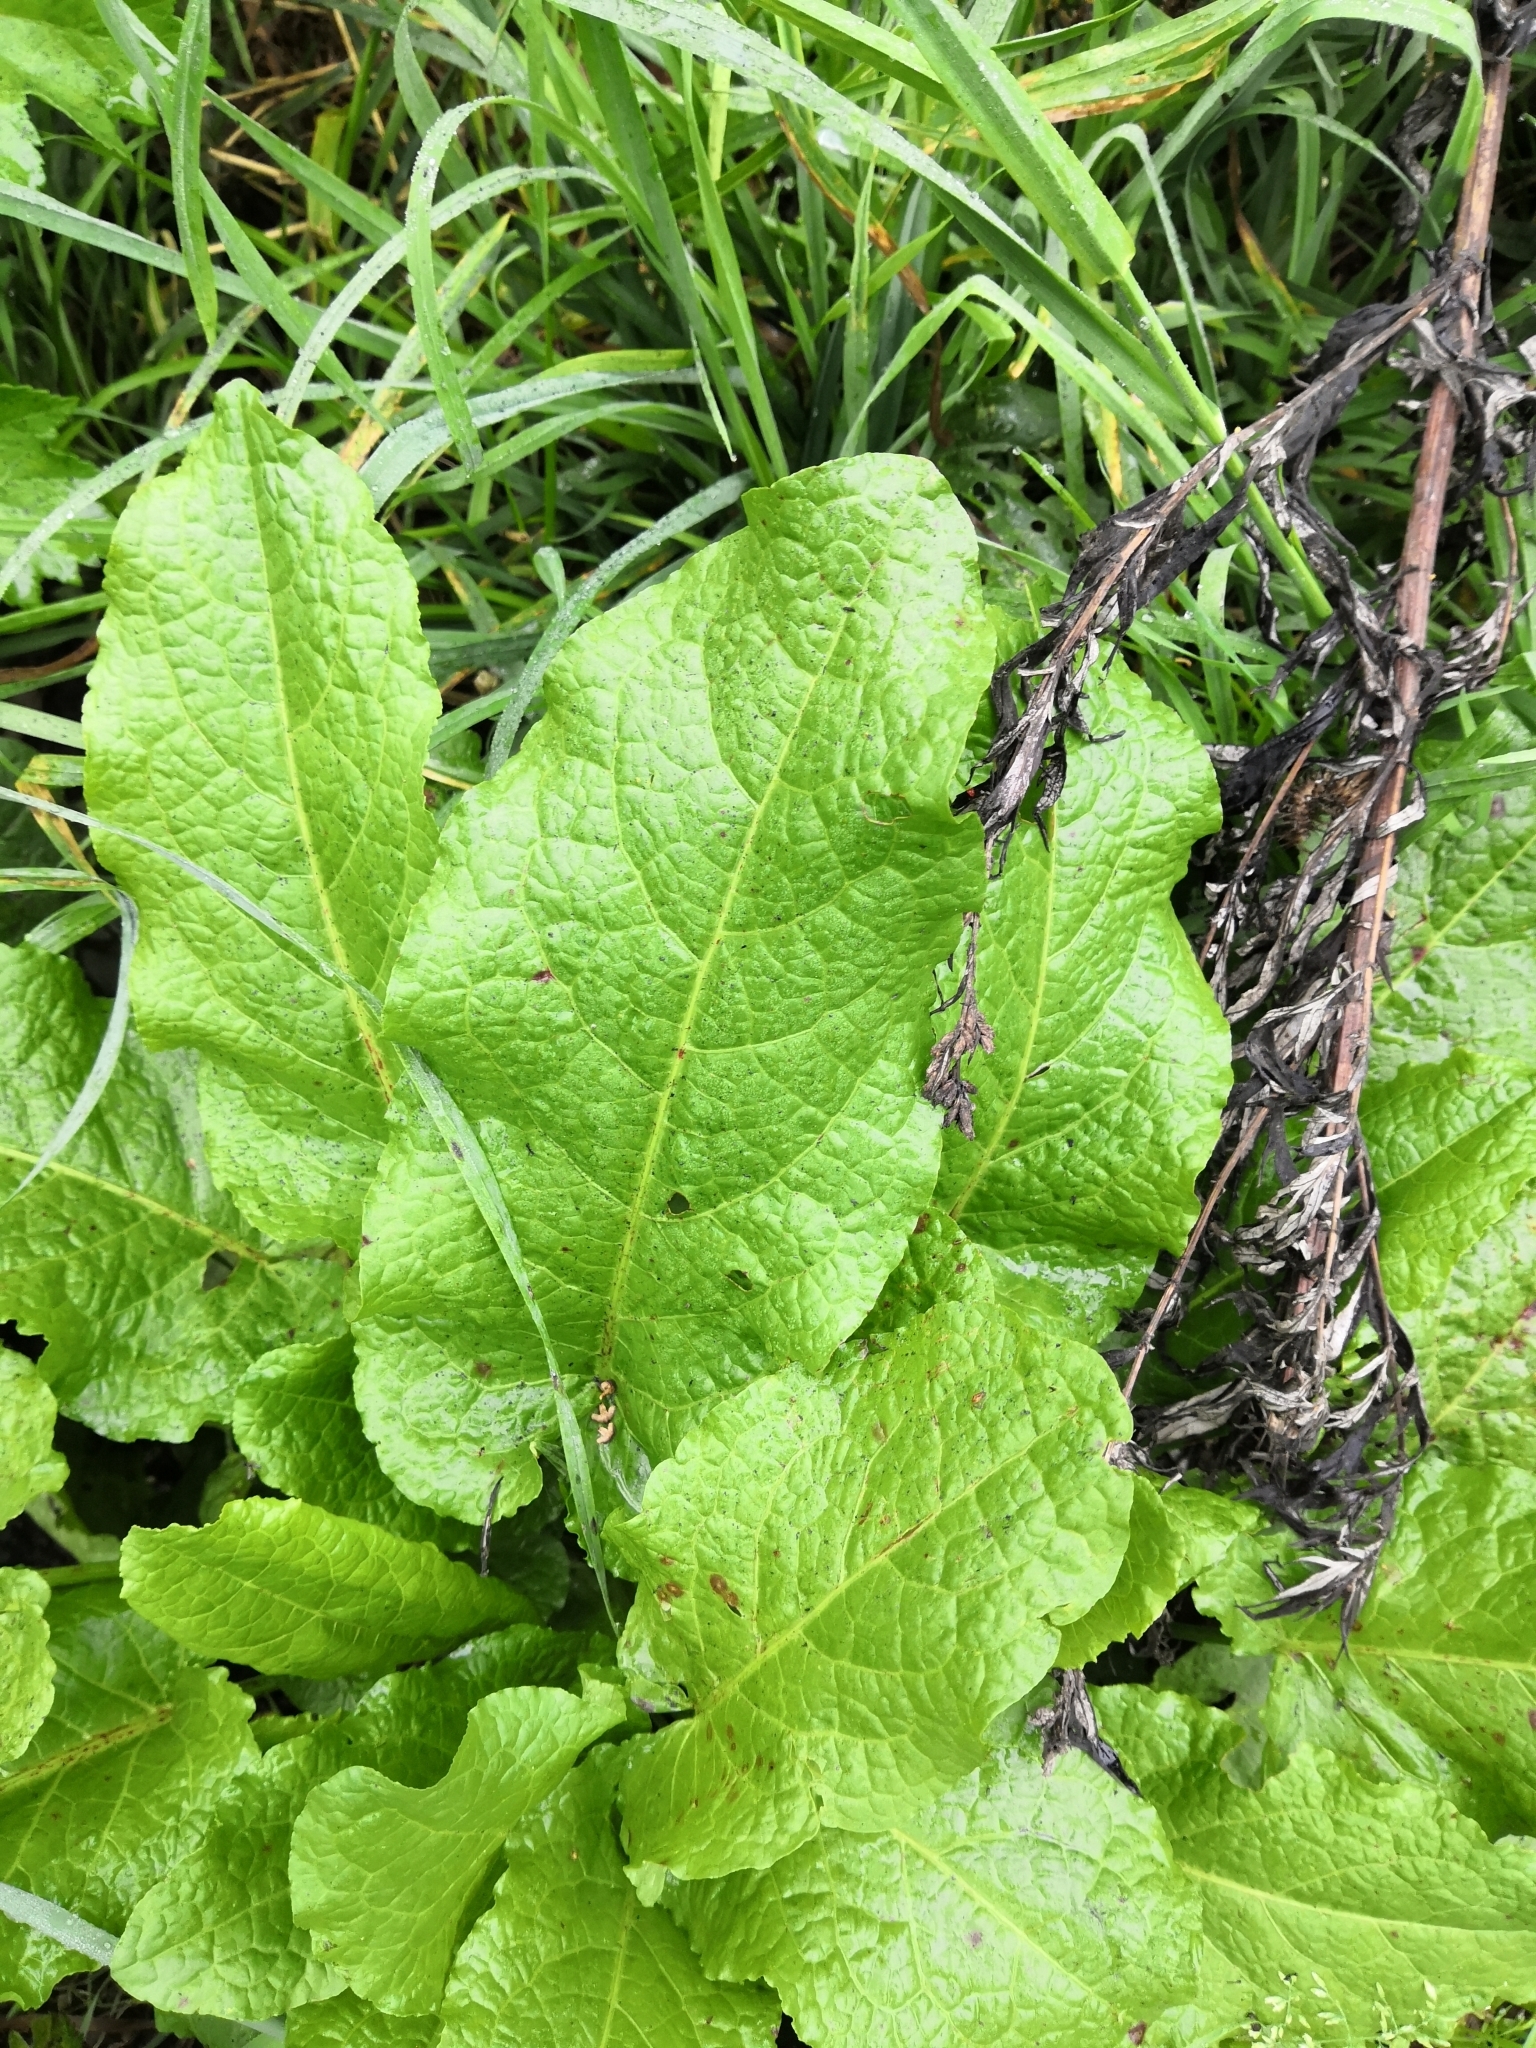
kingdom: Plantae
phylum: Tracheophyta
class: Magnoliopsida
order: Caryophyllales
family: Polygonaceae
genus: Rumex
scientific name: Rumex obtusifolius
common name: Bitter dock
